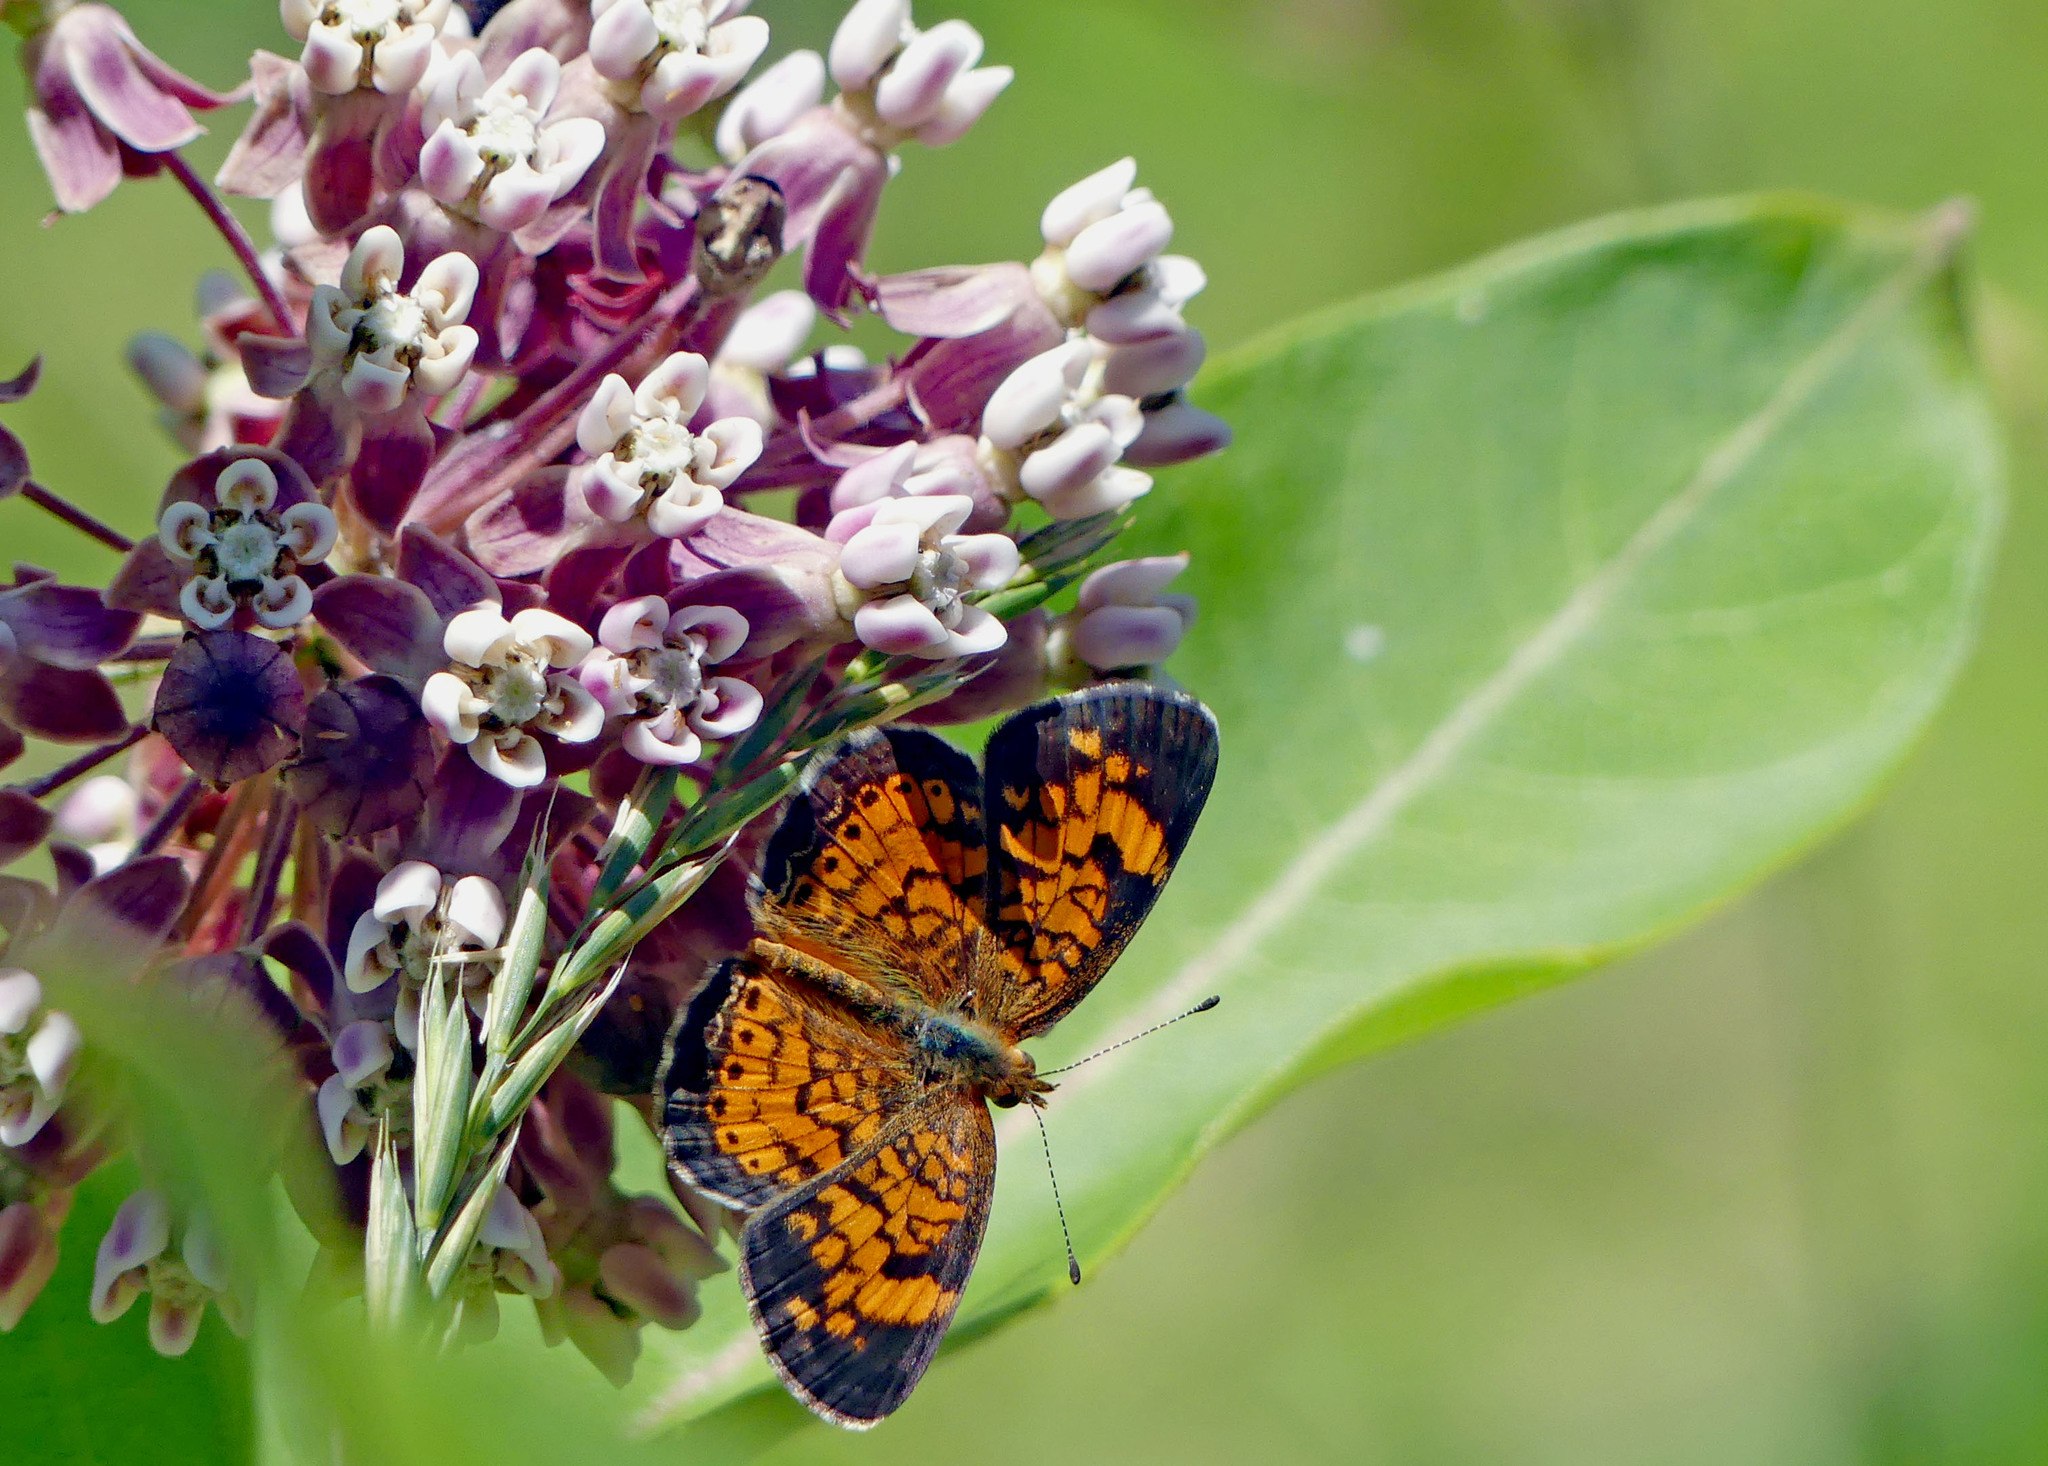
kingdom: Animalia
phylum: Arthropoda
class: Insecta
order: Lepidoptera
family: Nymphalidae
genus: Phyciodes
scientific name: Phyciodes tharos
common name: Pearl crescent
